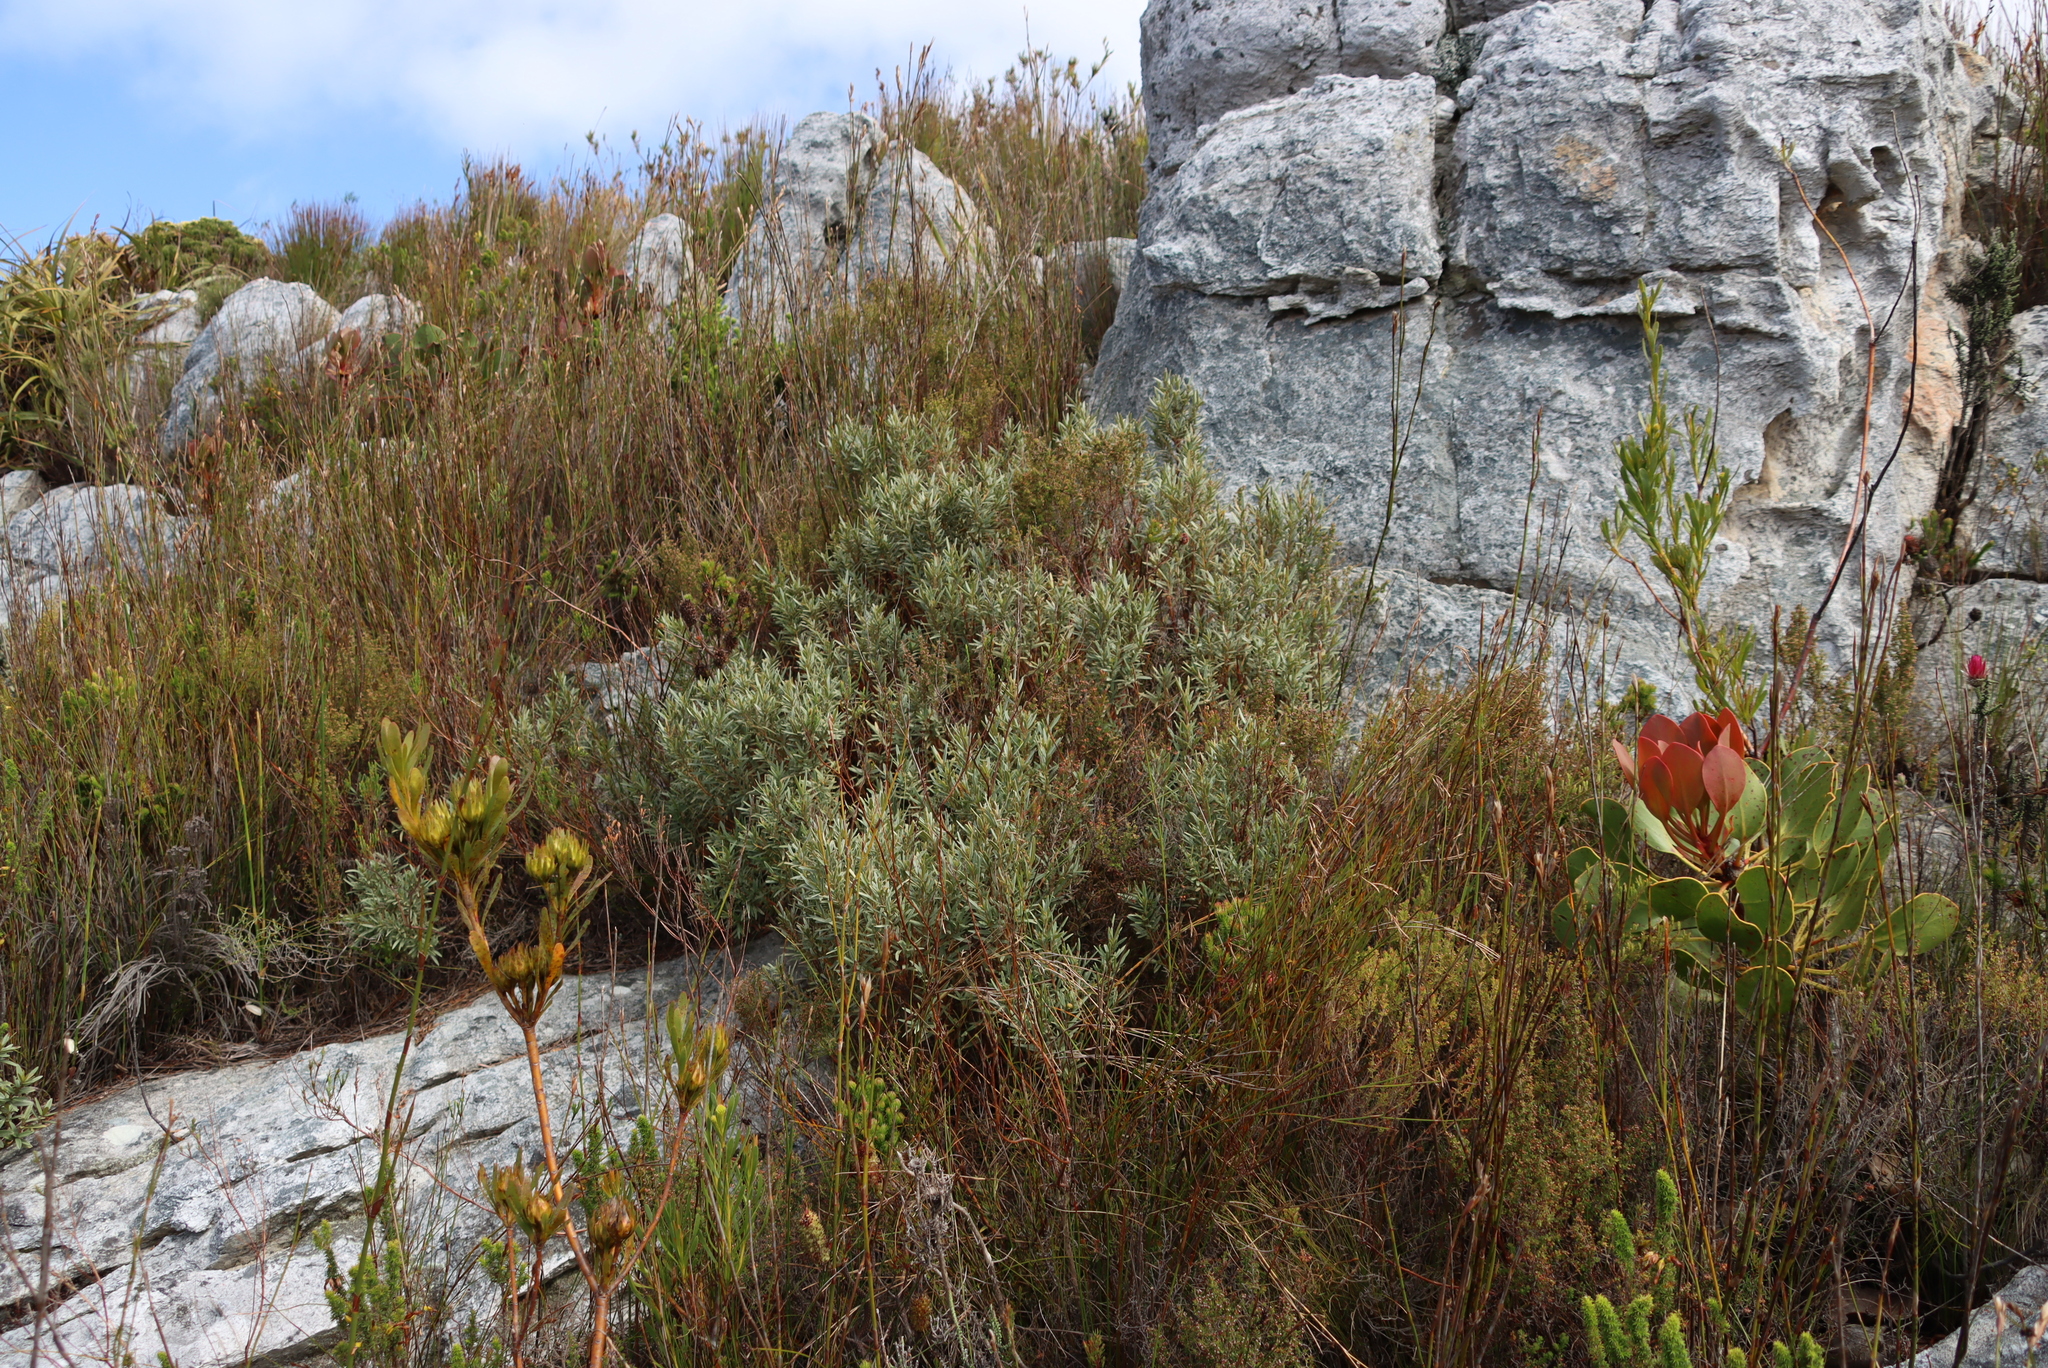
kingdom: Plantae
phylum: Tracheophyta
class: Magnoliopsida
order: Cornales
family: Grubbiaceae
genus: Grubbia
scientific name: Grubbia tomentosa
